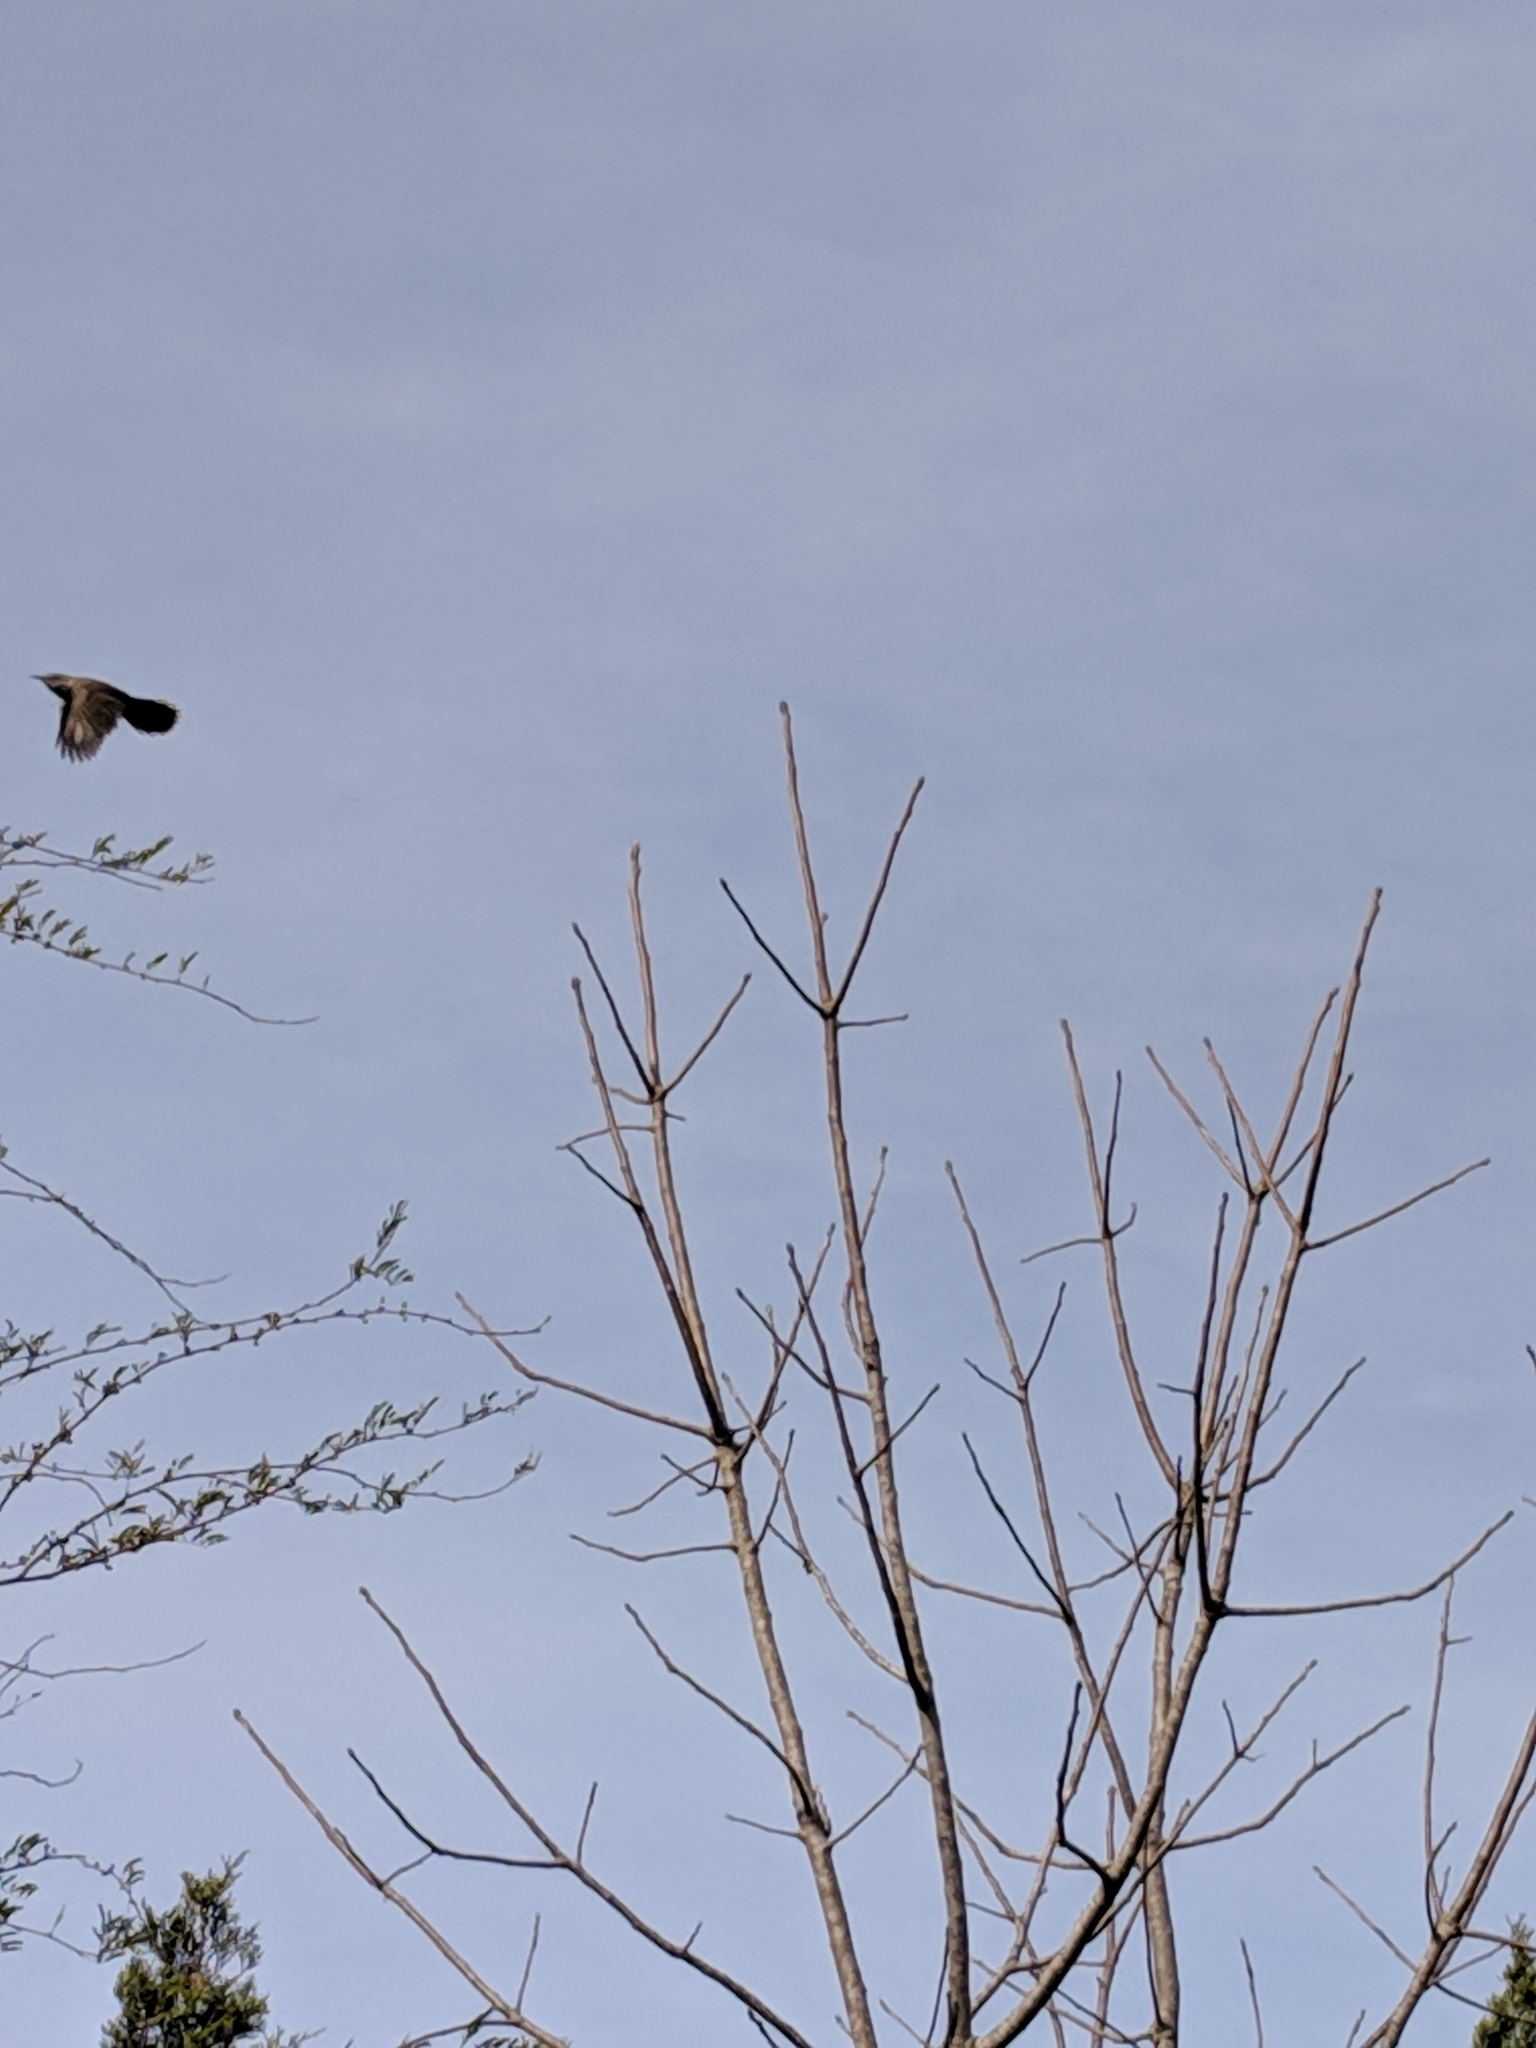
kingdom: Animalia
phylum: Chordata
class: Aves
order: Passeriformes
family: Troglodytidae
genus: Thryomanes
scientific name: Thryomanes bewickii
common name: Bewick's wren
